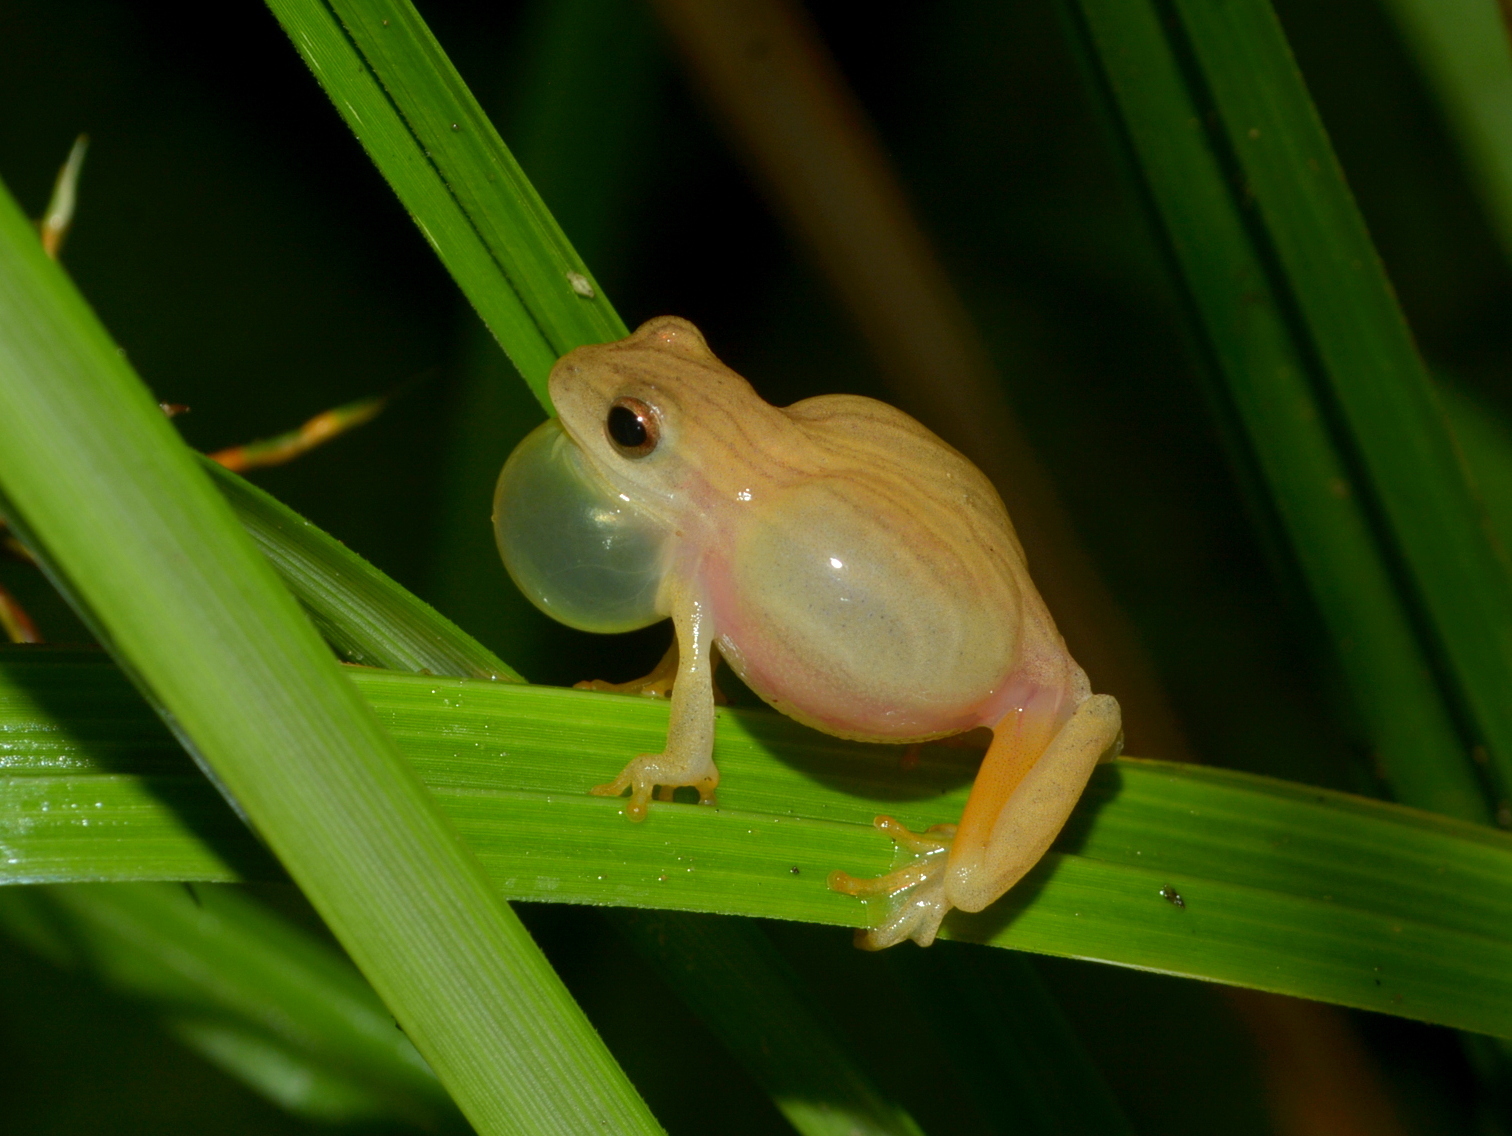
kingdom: Animalia
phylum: Chordata
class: Amphibia
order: Anura
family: Hylidae
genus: Dendropsophus
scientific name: Dendropsophus minutus
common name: Lesser treefrog
